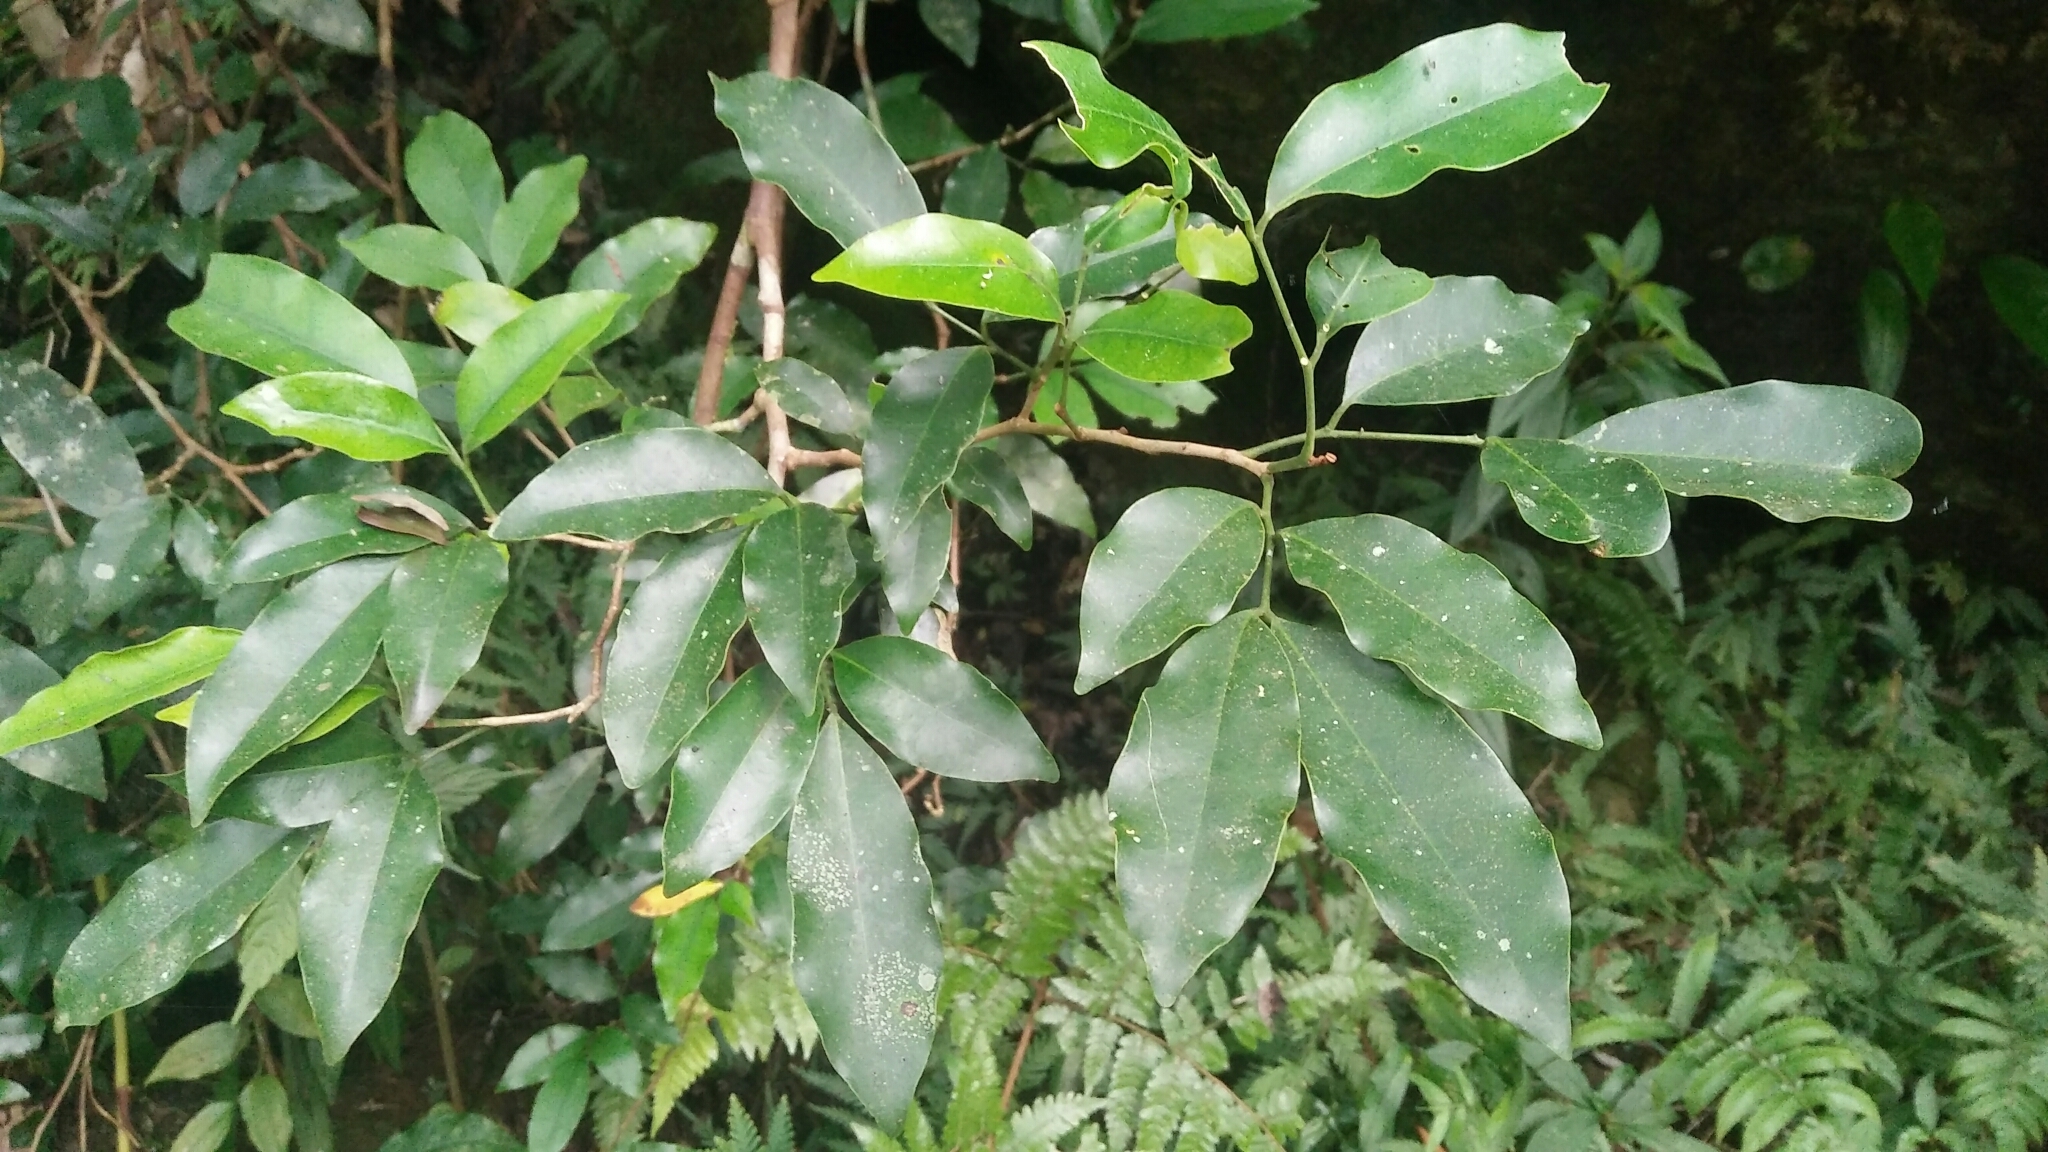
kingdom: Plantae
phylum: Tracheophyta
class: Magnoliopsida
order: Sapindales
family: Rutaceae
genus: Glycosmis
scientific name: Glycosmis parviflora
